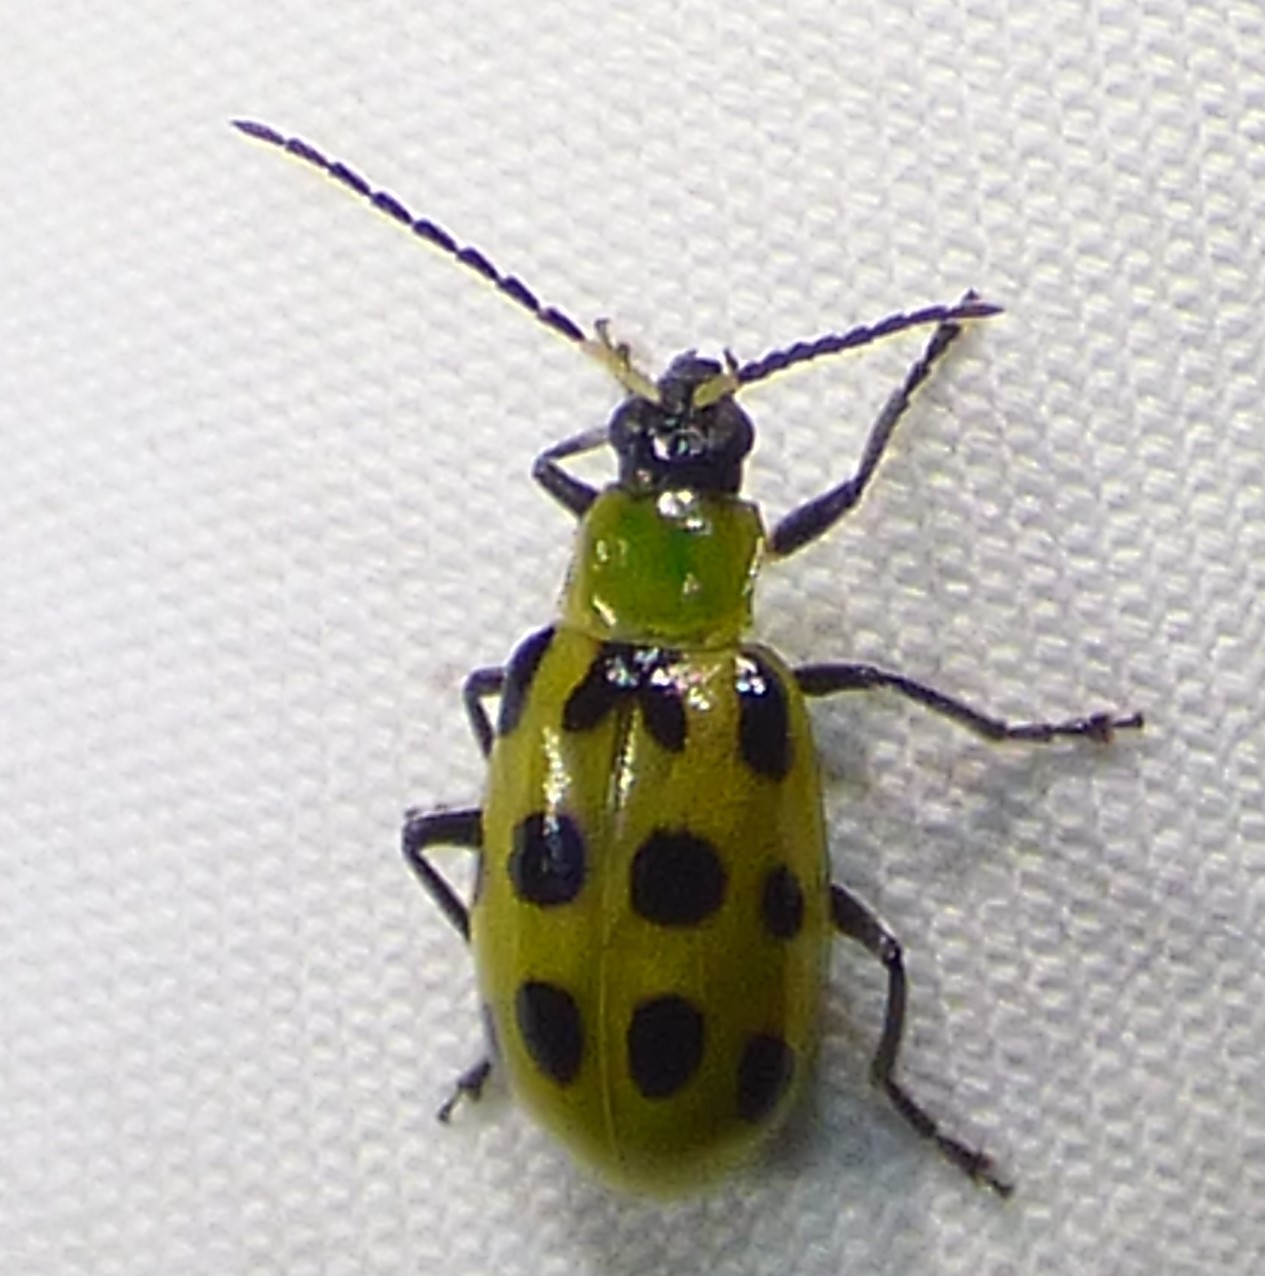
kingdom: Animalia
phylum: Arthropoda
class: Insecta
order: Coleoptera
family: Chrysomelidae
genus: Diabrotica
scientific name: Diabrotica undecimpunctata
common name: Spotted cucumber beetle
